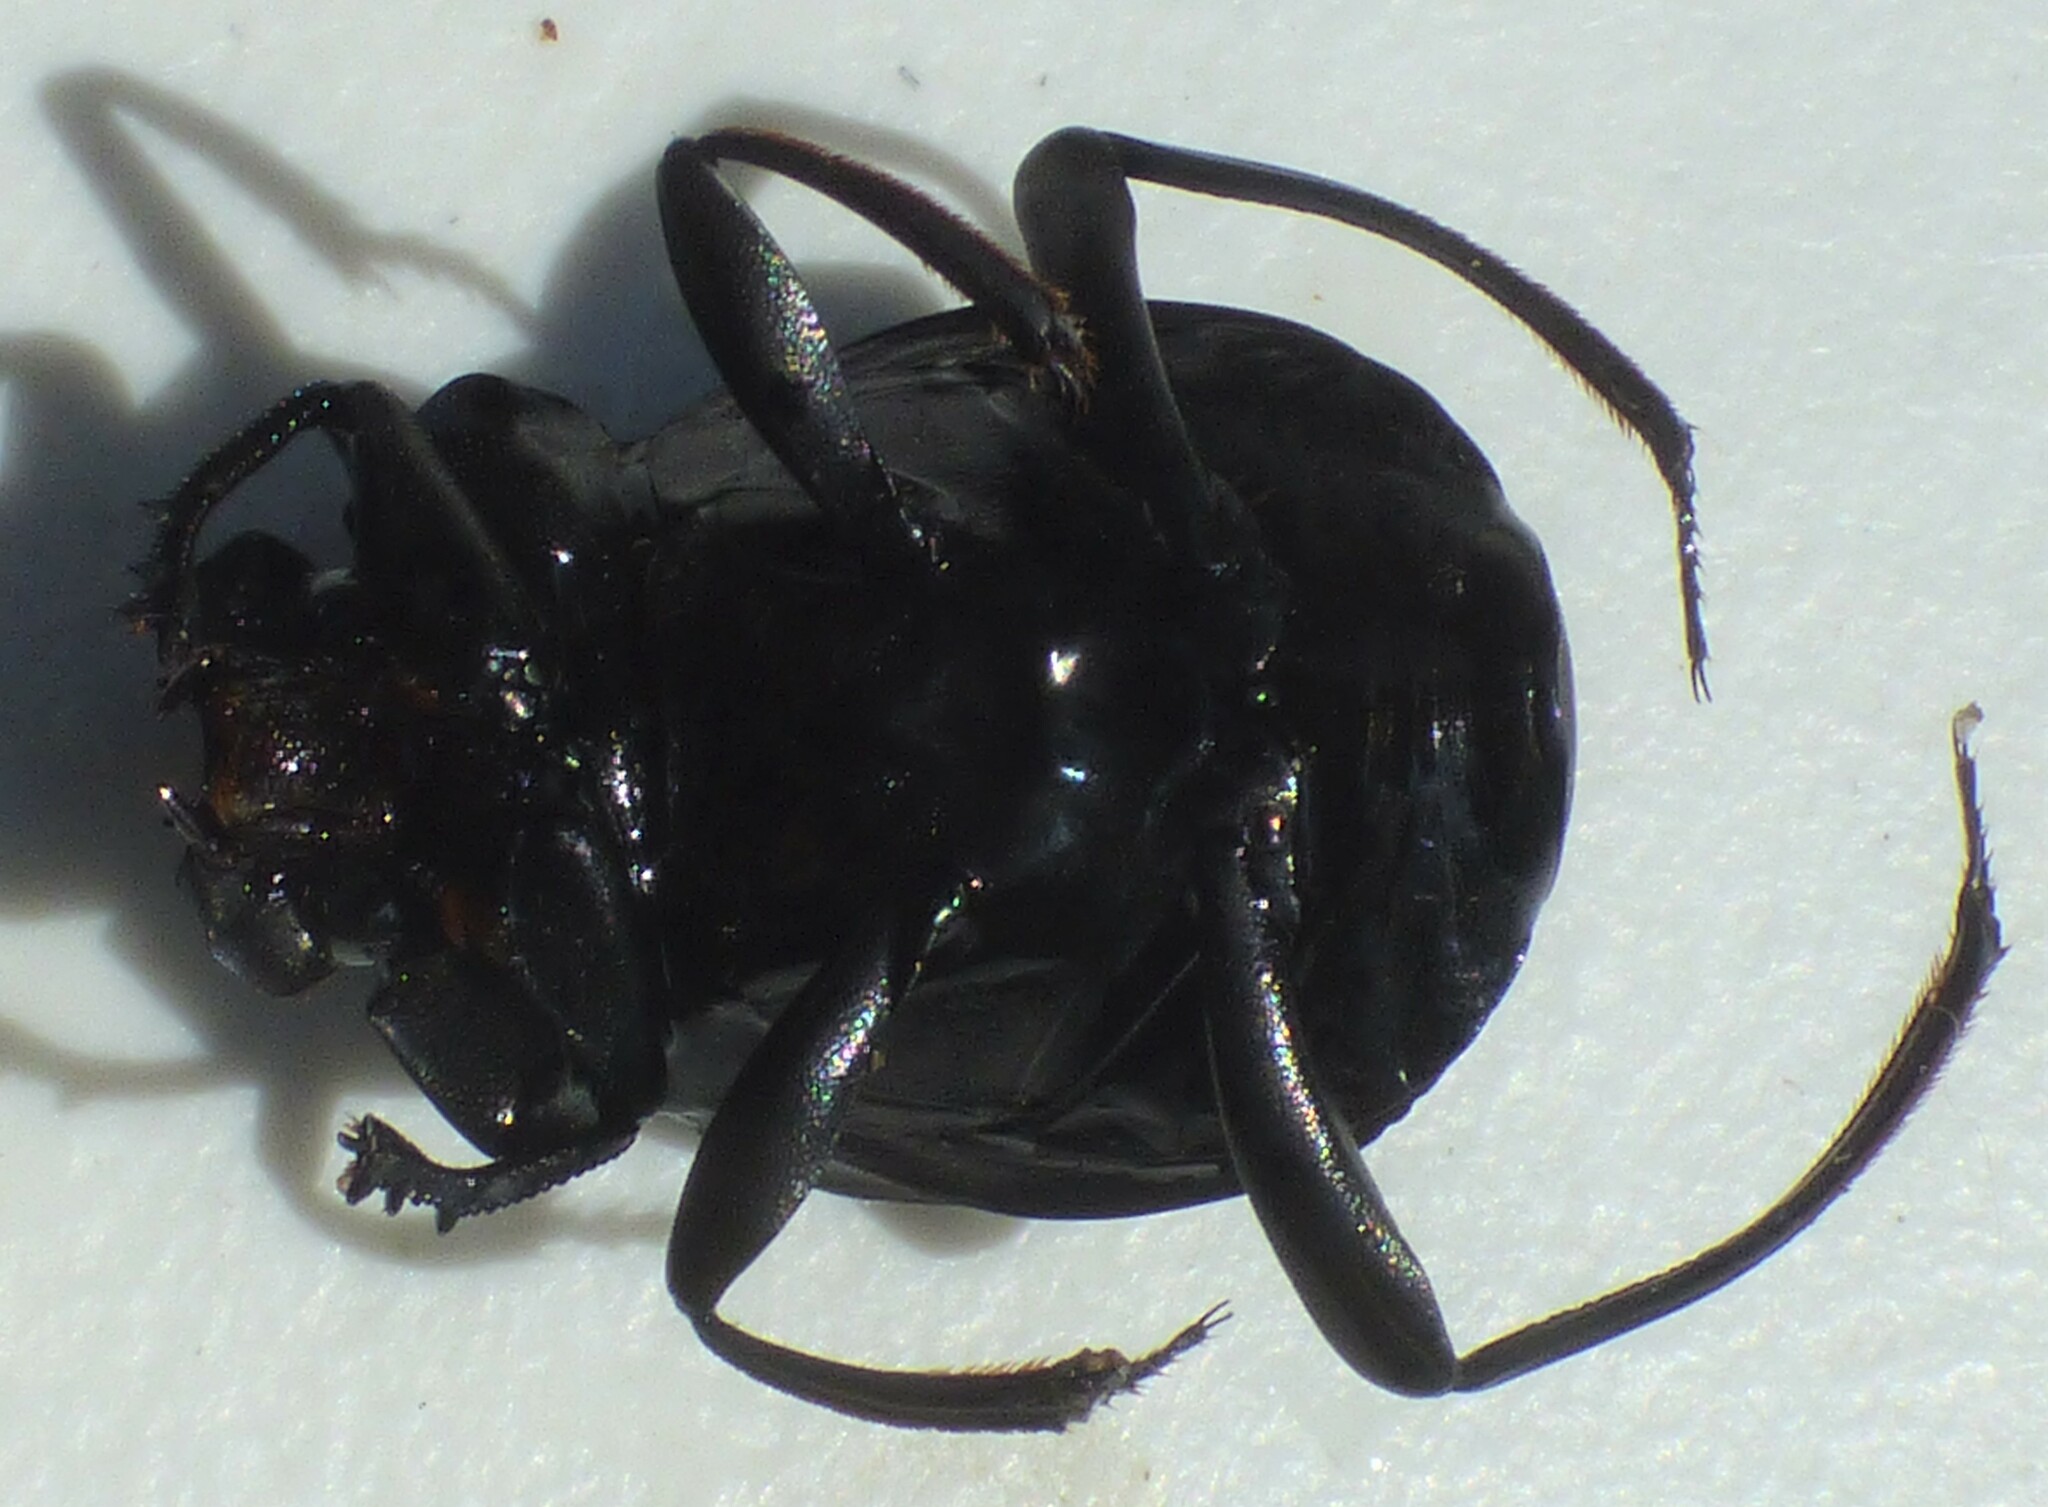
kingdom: Animalia
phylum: Arthropoda
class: Insecta
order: Coleoptera
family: Scarabaeidae
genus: Deltochilum
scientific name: Deltochilum gibbosum
